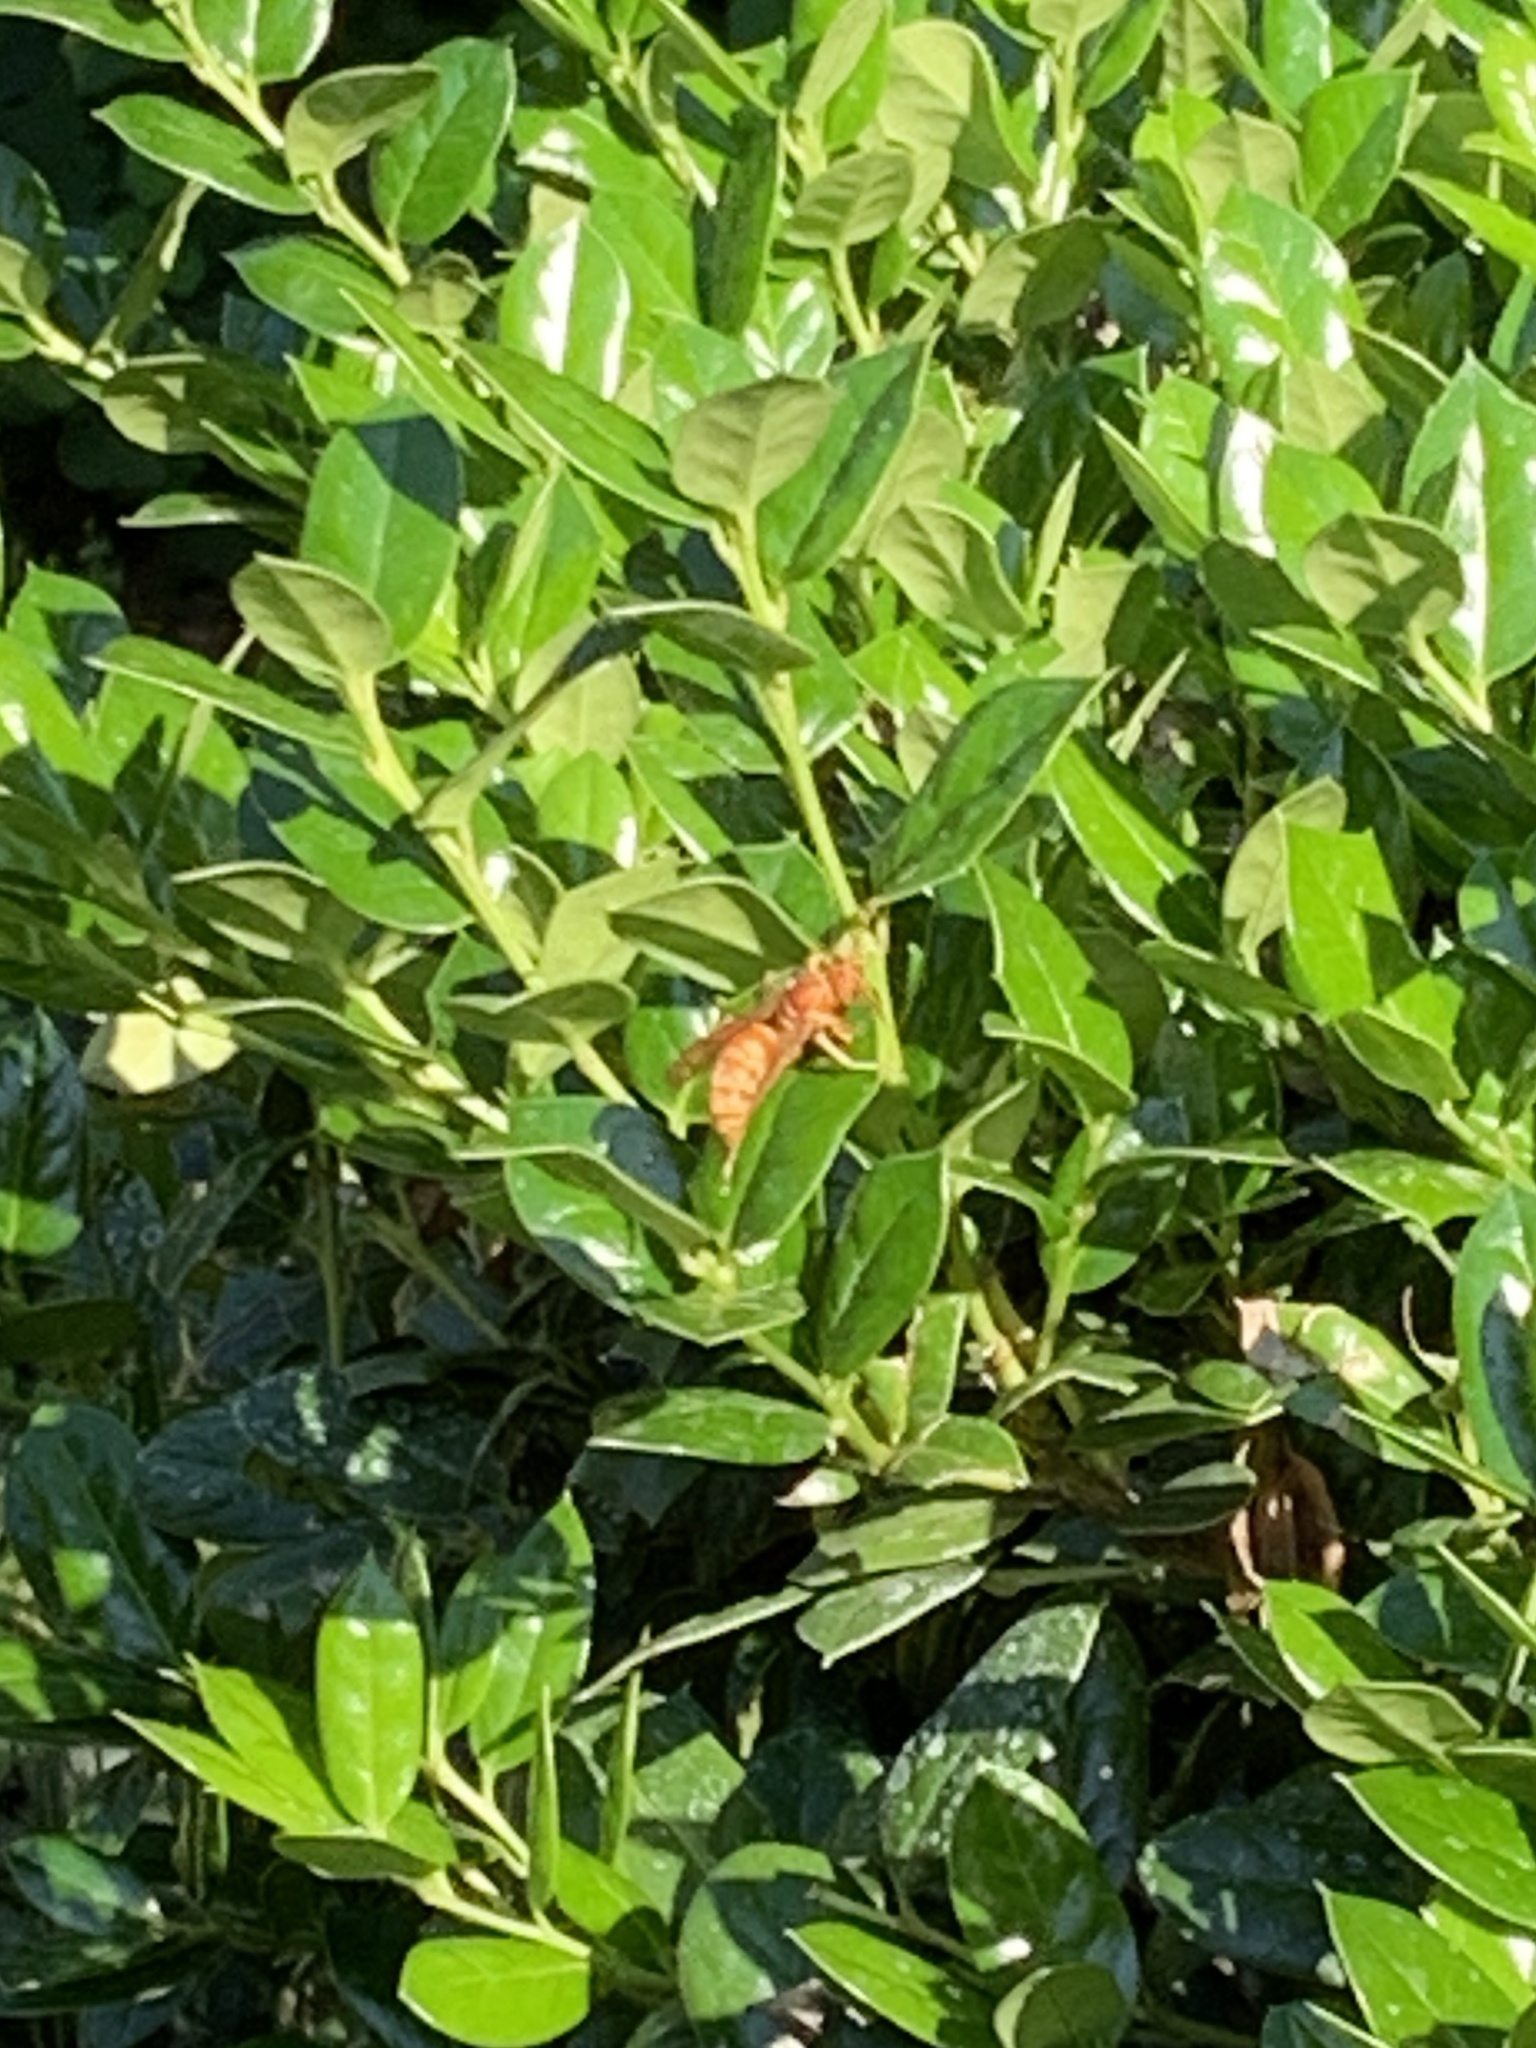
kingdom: Animalia
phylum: Arthropoda
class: Insecta
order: Hymenoptera
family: Eumenidae
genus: Polistes
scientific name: Polistes apachus
